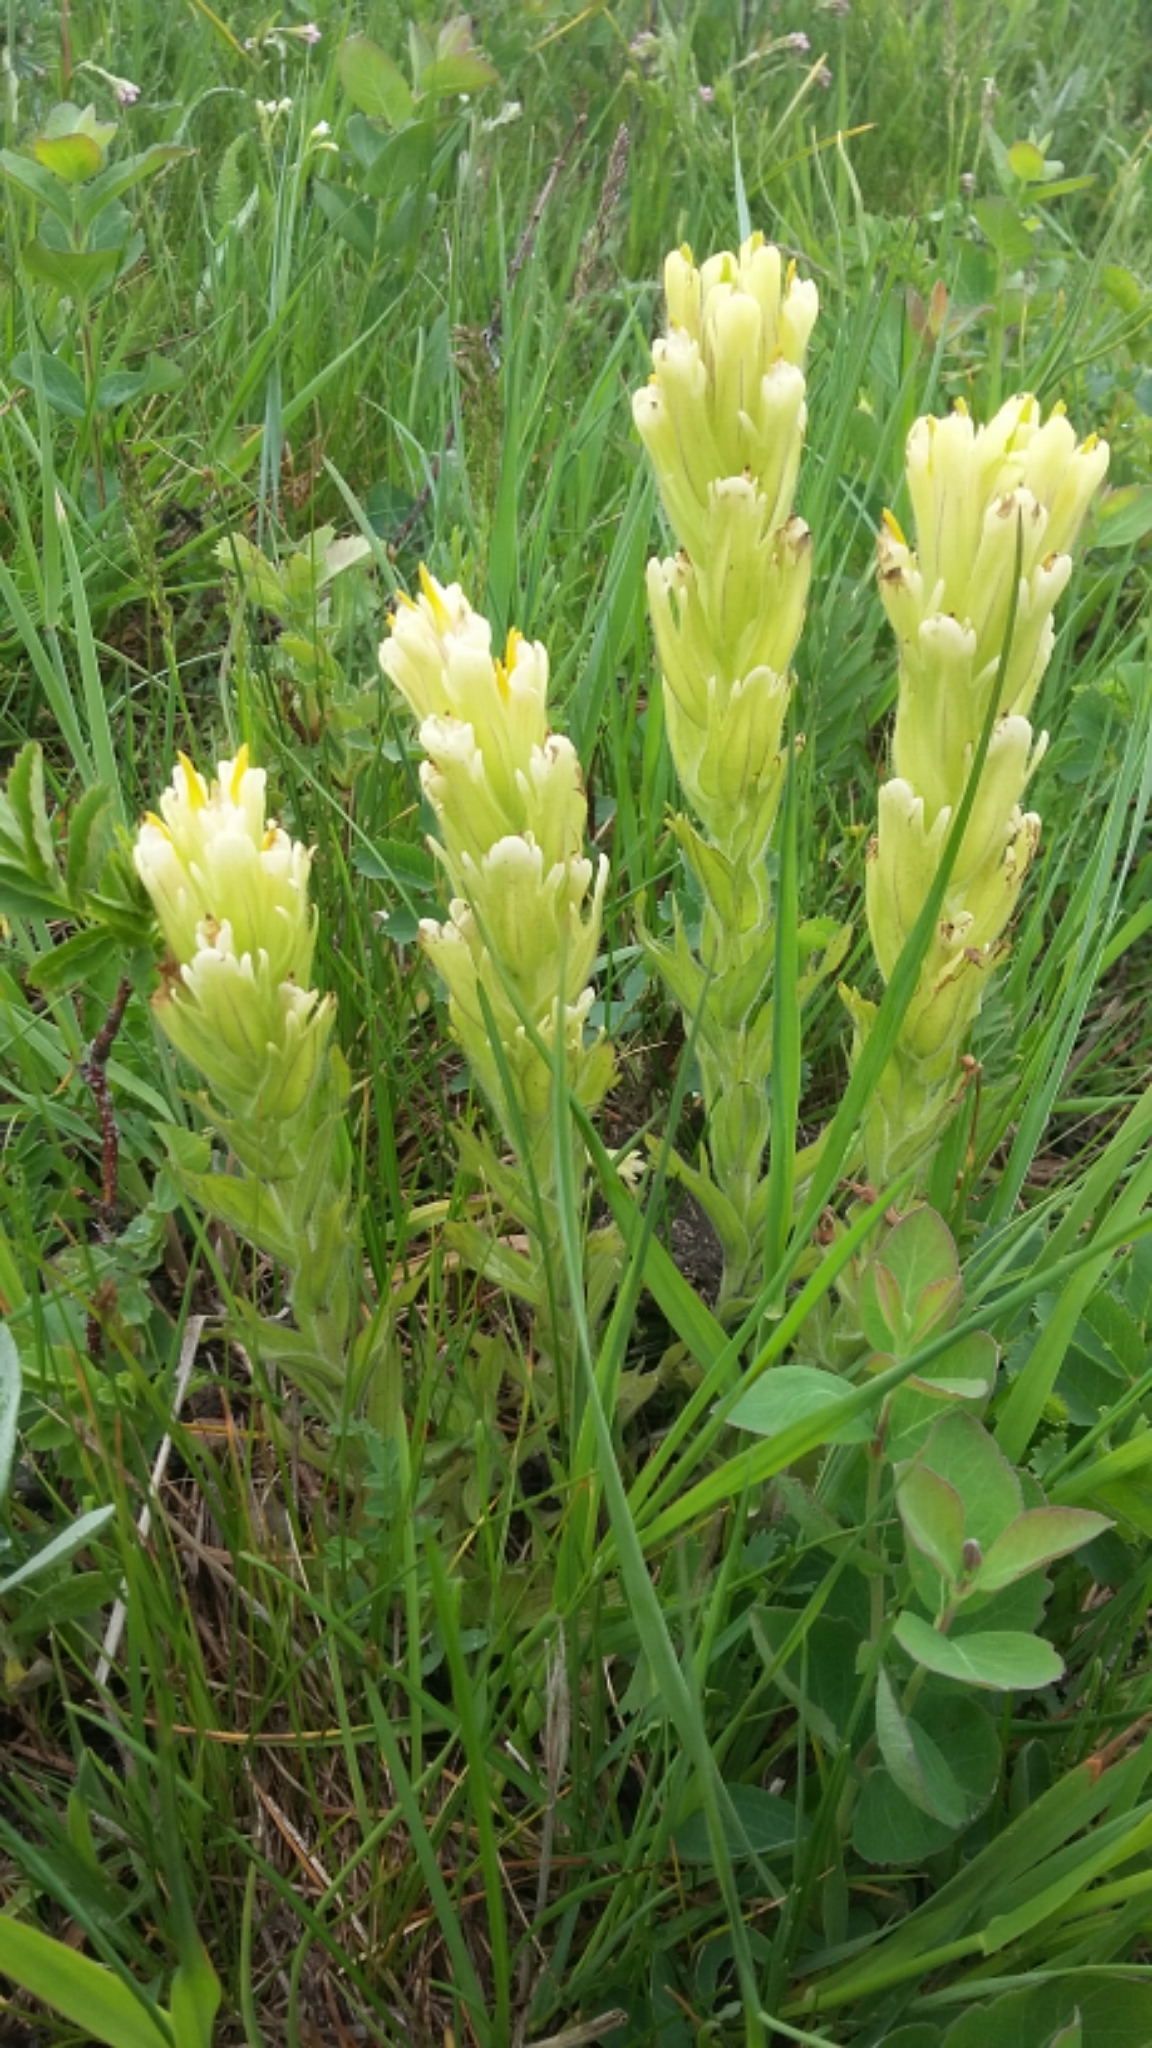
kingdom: Plantae
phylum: Tracheophyta
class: Magnoliopsida
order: Lamiales
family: Orobanchaceae
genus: Castilleja
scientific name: Castilleja cusickii
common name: Cusick's paintbrush
